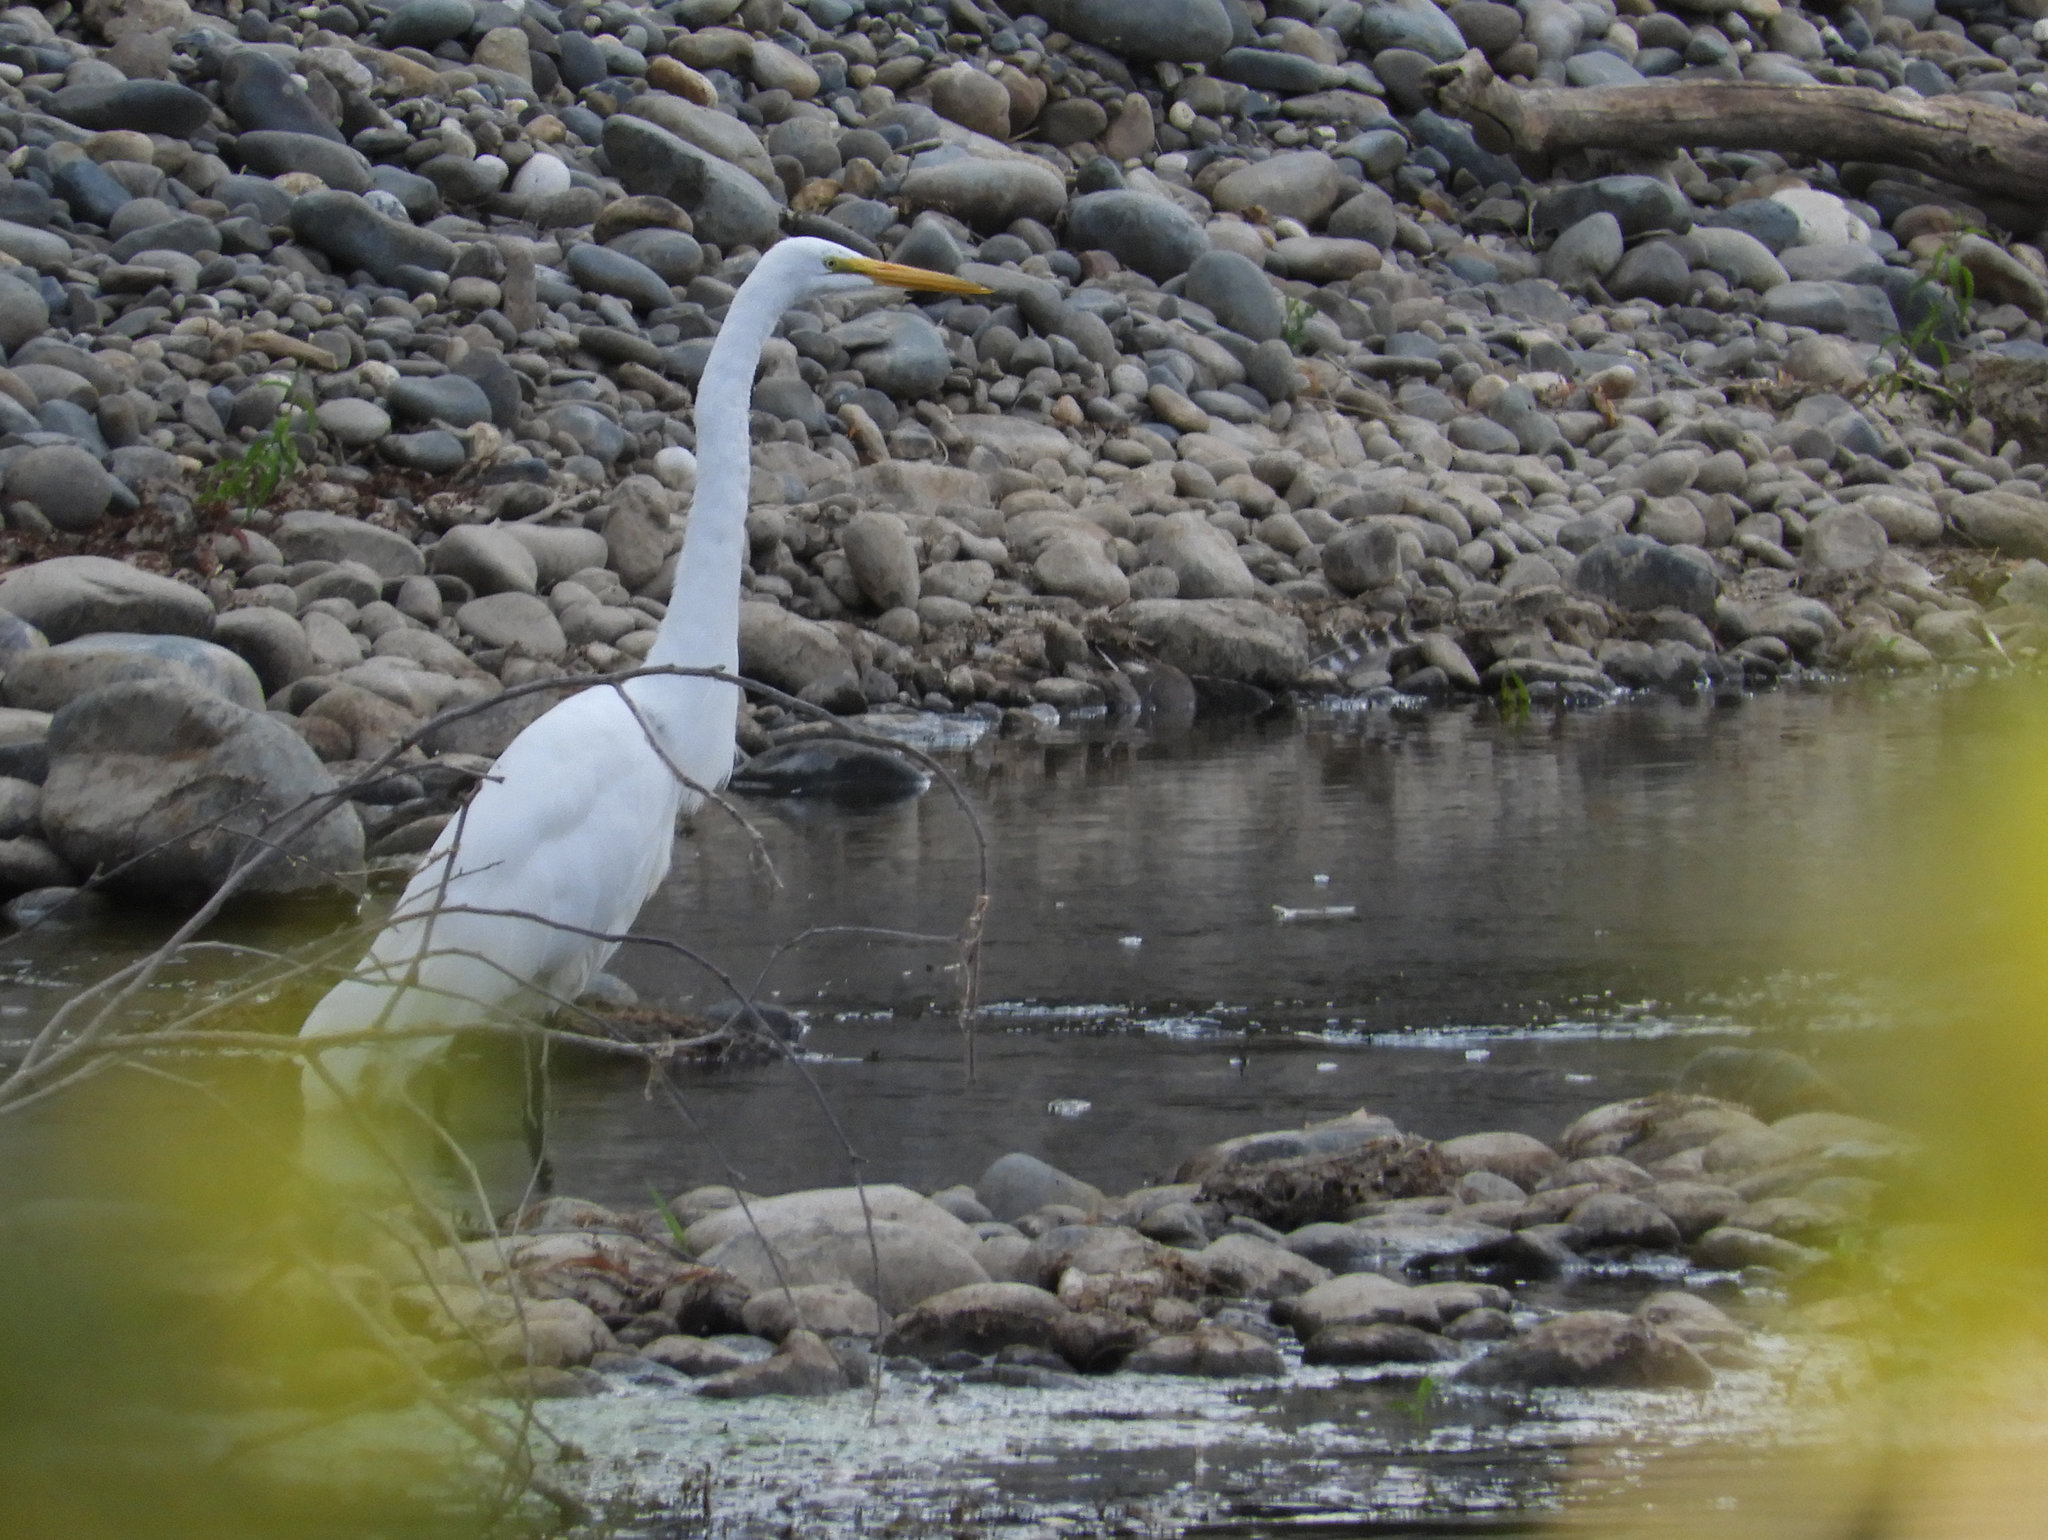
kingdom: Animalia
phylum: Chordata
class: Aves
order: Pelecaniformes
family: Ardeidae
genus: Ardea
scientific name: Ardea alba
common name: Great egret
